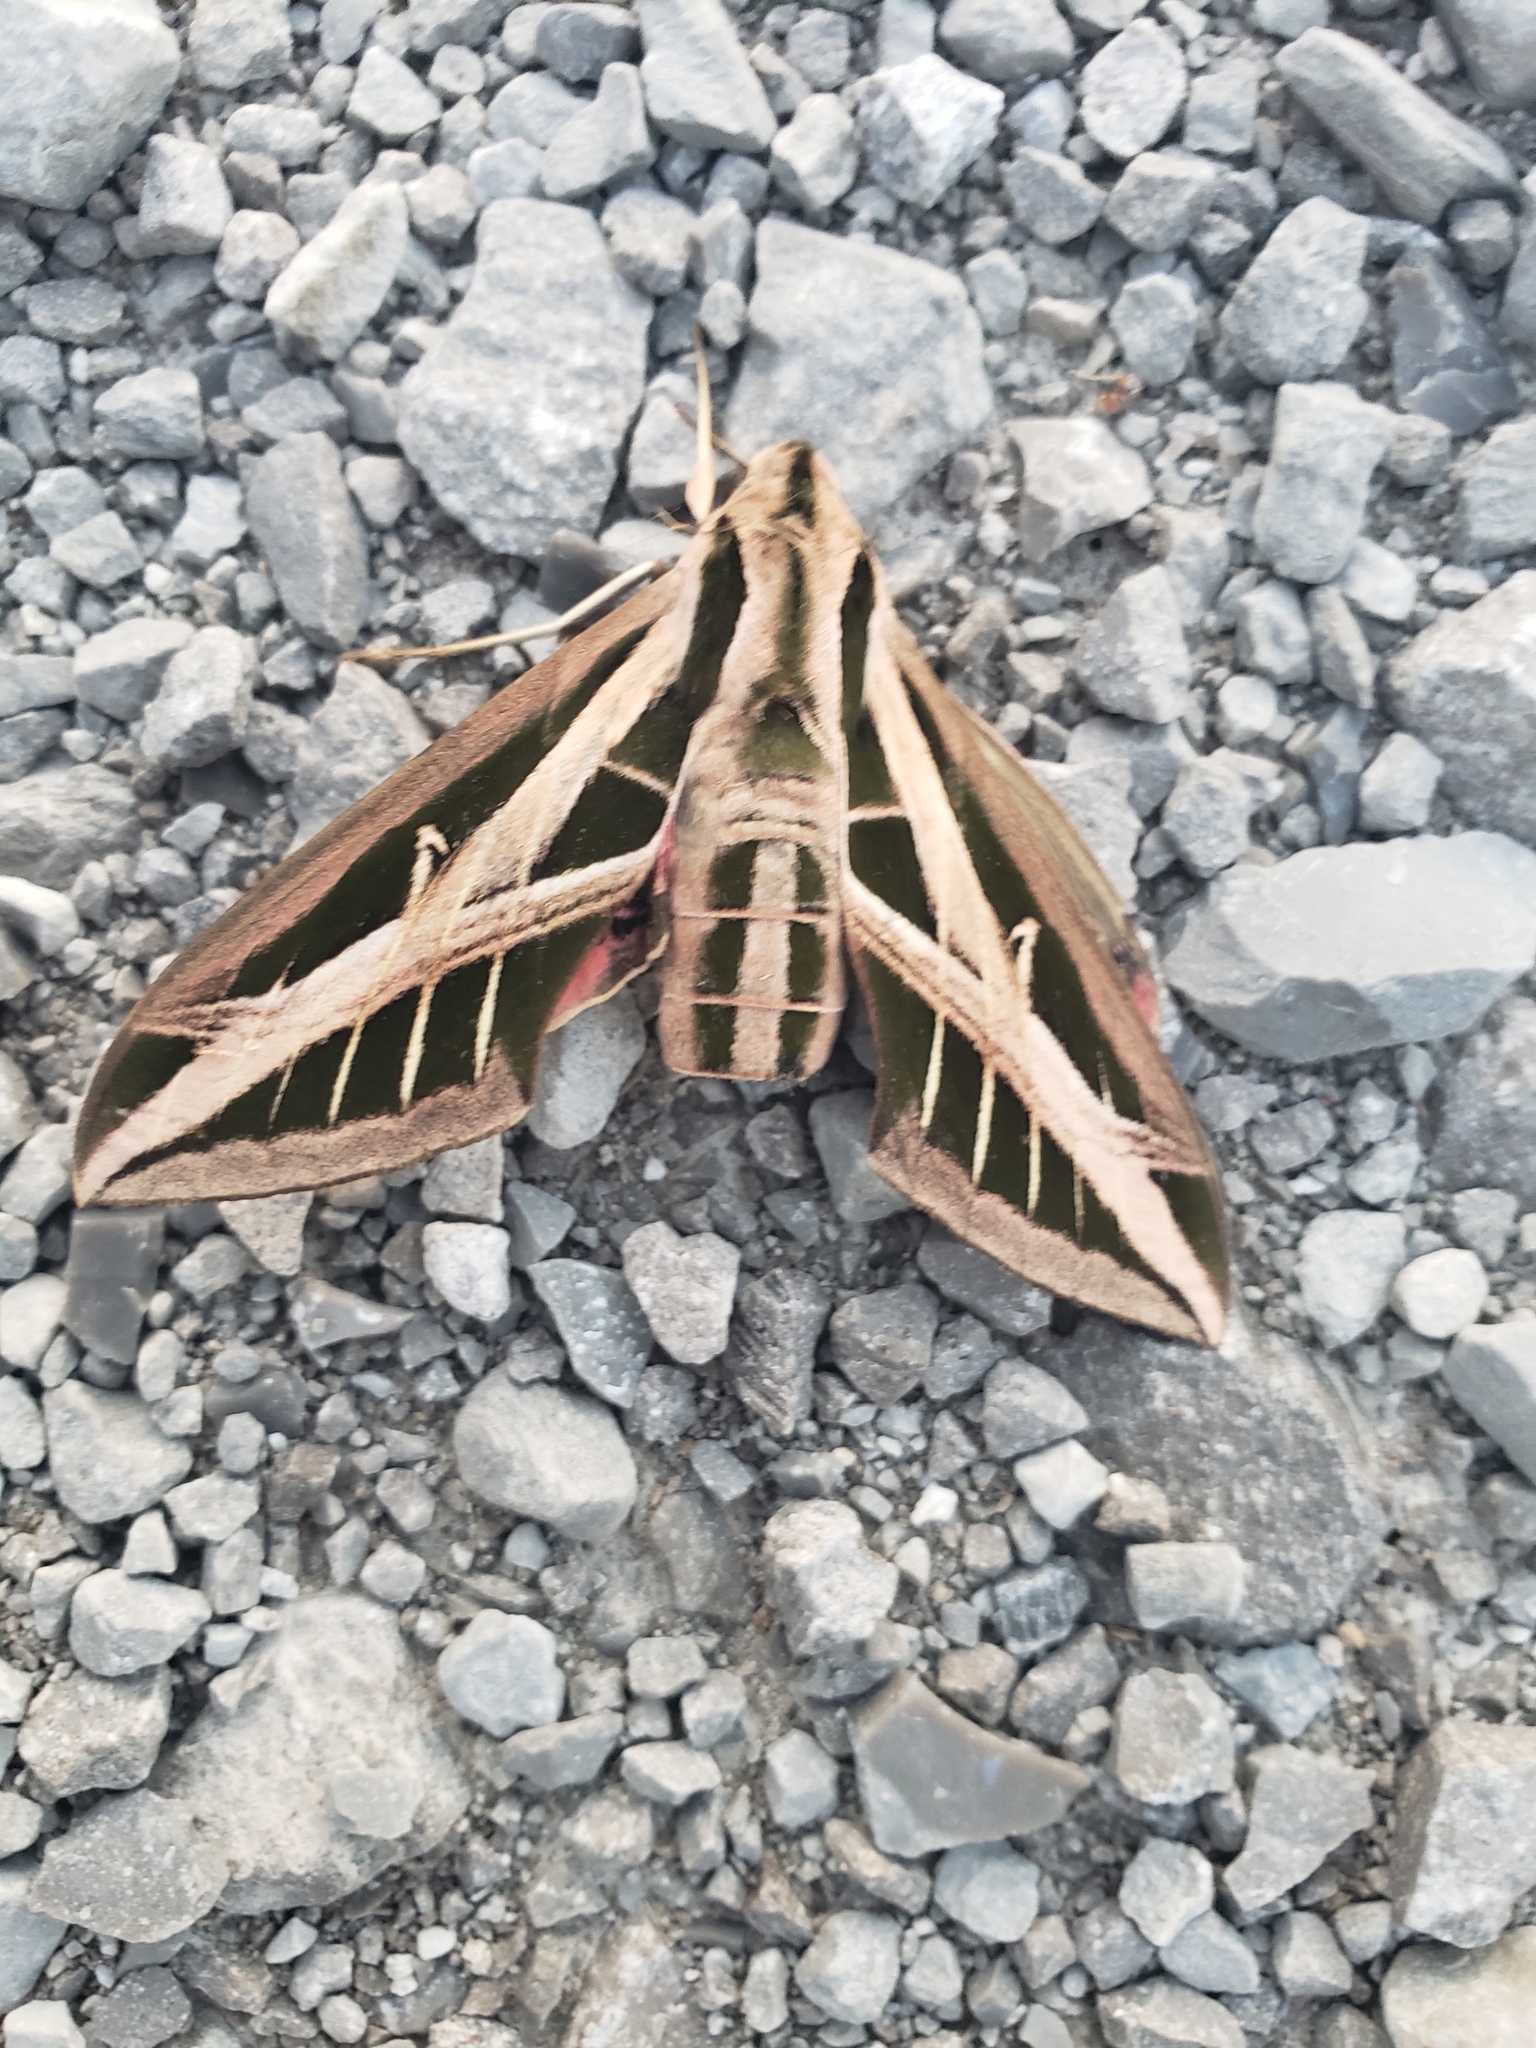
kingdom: Animalia
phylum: Arthropoda
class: Insecta
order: Lepidoptera
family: Sphingidae
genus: Eumorpha
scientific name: Eumorpha fasciatus
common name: Banded sphinx
